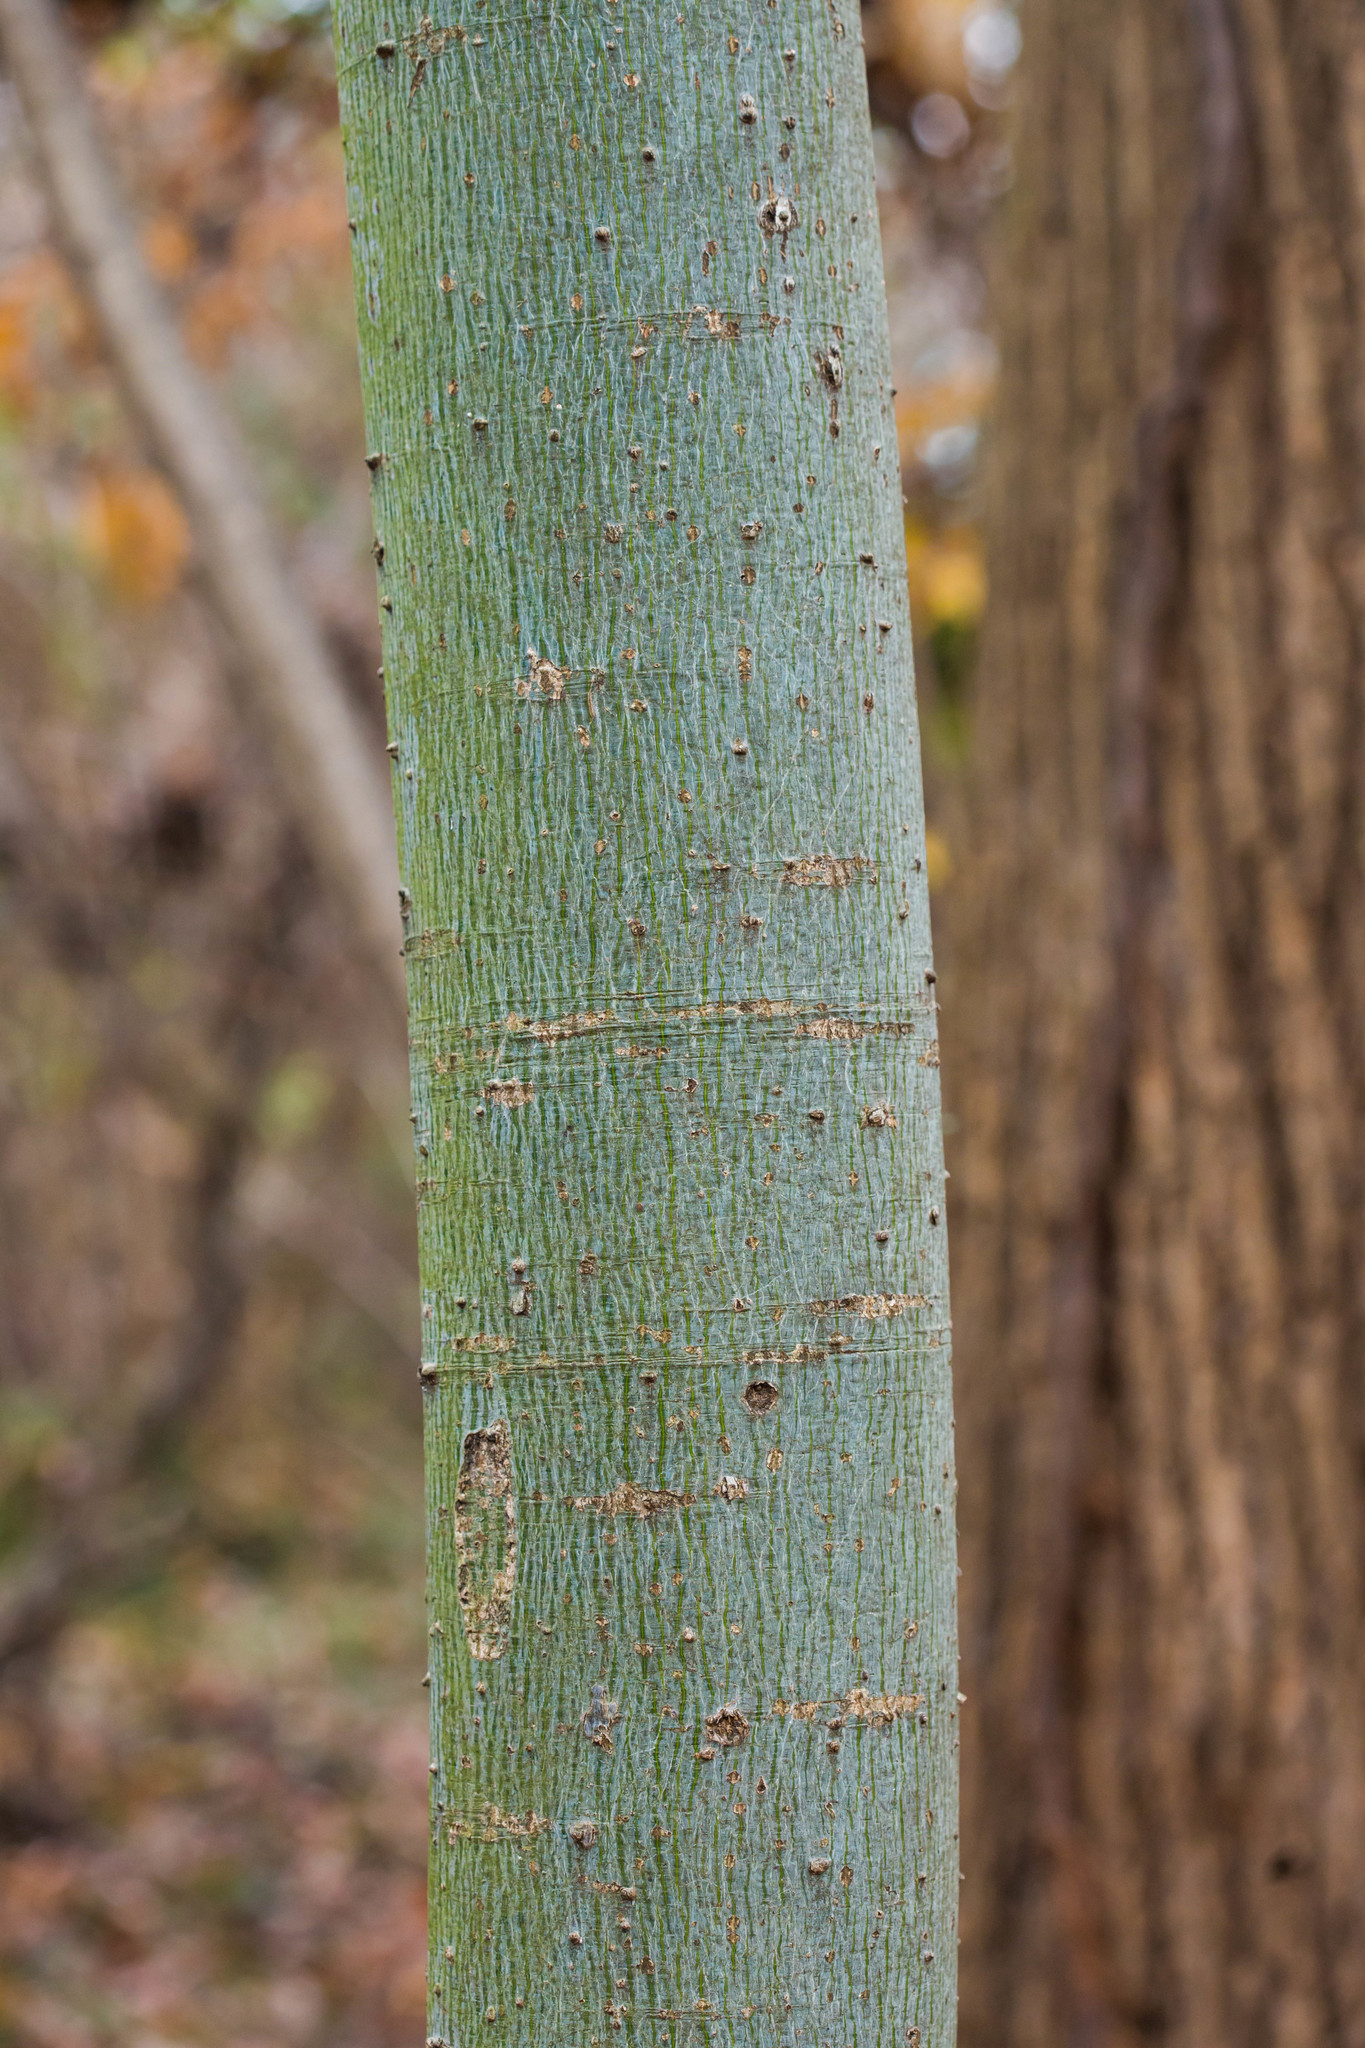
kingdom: Plantae
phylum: Tracheophyta
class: Magnoliopsida
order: Malvales
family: Malvaceae
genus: Firmiana
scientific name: Firmiana simplex
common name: Chinese parasoltree
